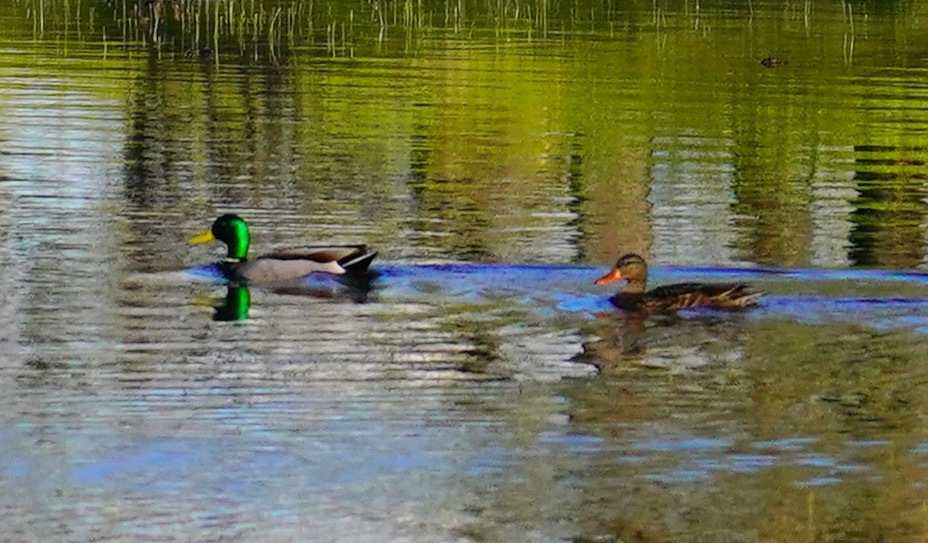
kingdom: Animalia
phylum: Chordata
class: Aves
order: Anseriformes
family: Anatidae
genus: Anas
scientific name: Anas platyrhynchos
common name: Mallard
